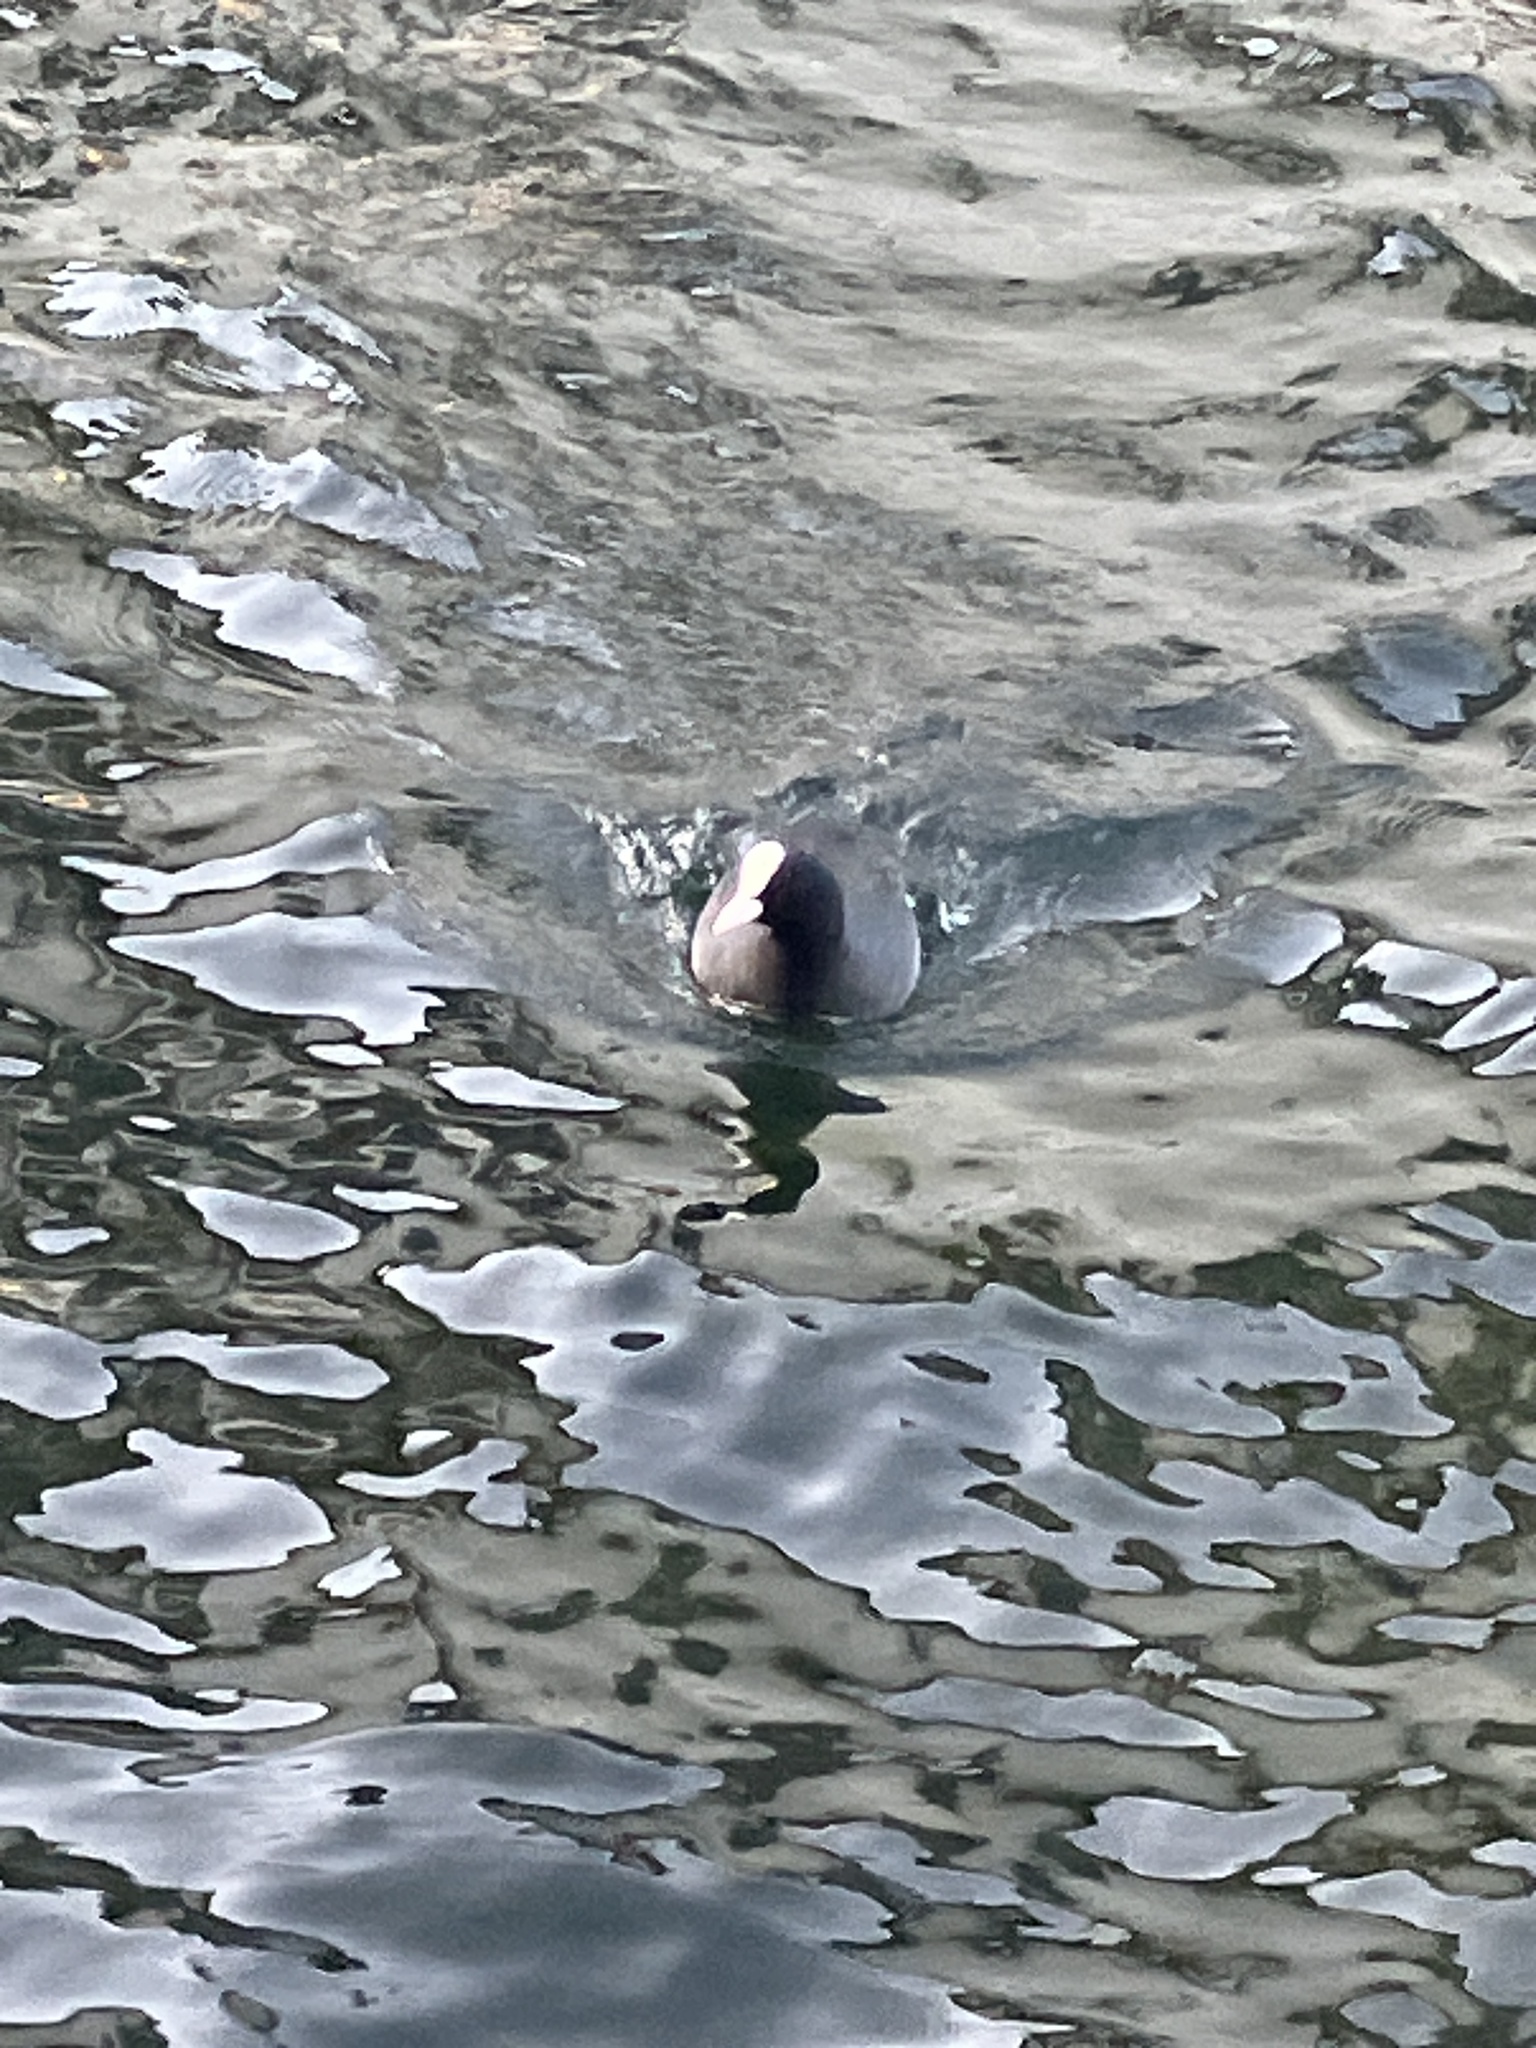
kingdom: Animalia
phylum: Chordata
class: Aves
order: Gruiformes
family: Rallidae
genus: Fulica
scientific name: Fulica atra
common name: Eurasian coot
